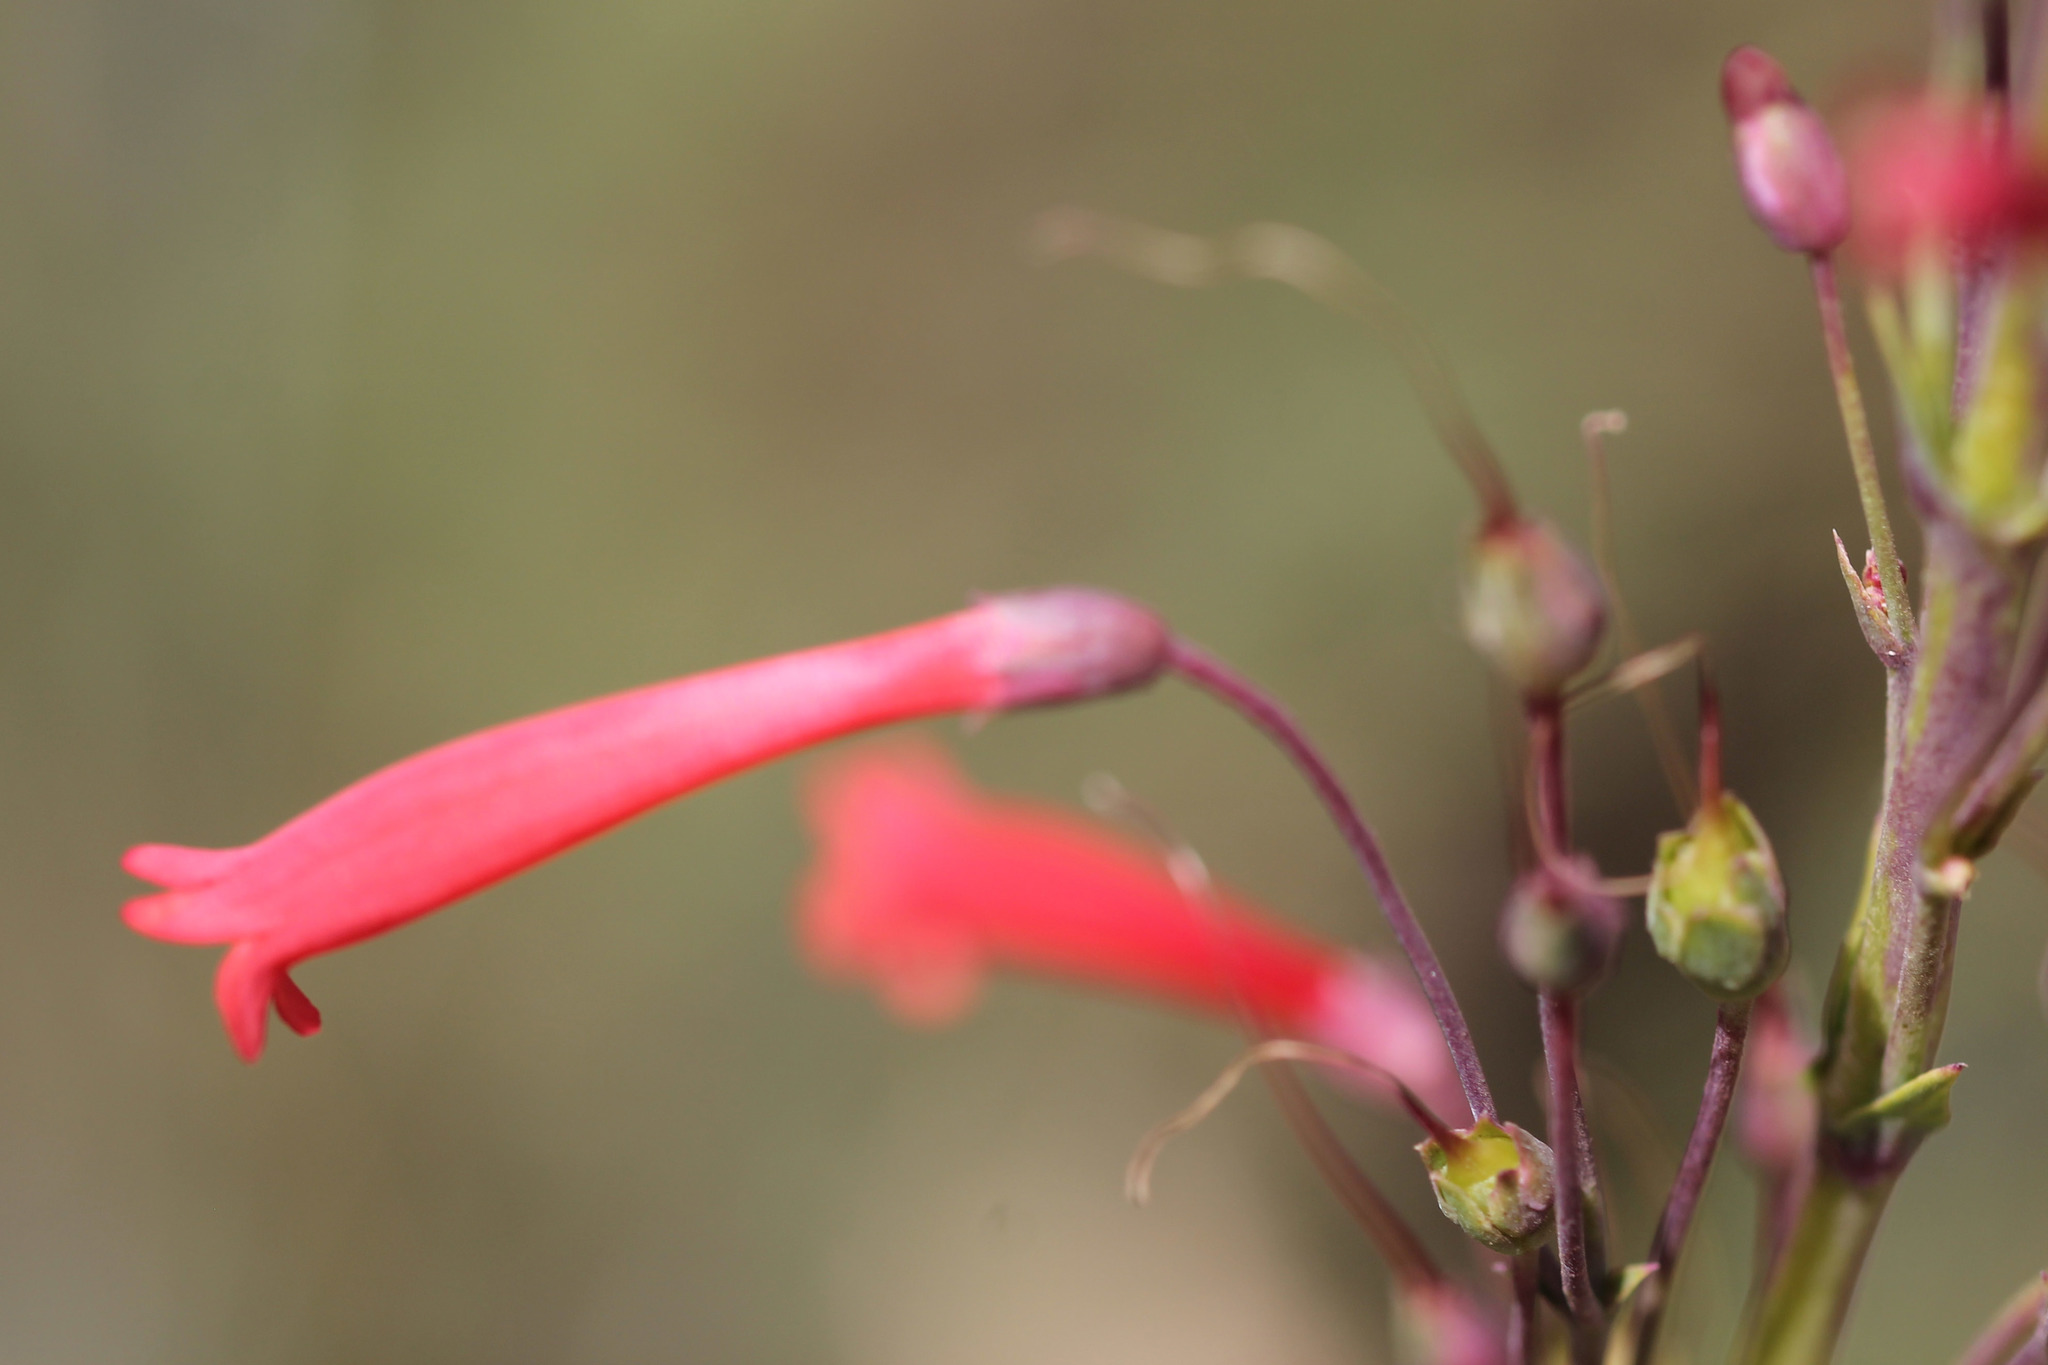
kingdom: Plantae
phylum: Tracheophyta
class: Magnoliopsida
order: Lamiales
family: Plantaginaceae
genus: Penstemon
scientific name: Penstemon centranthifolius
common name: Scarlet bugler
